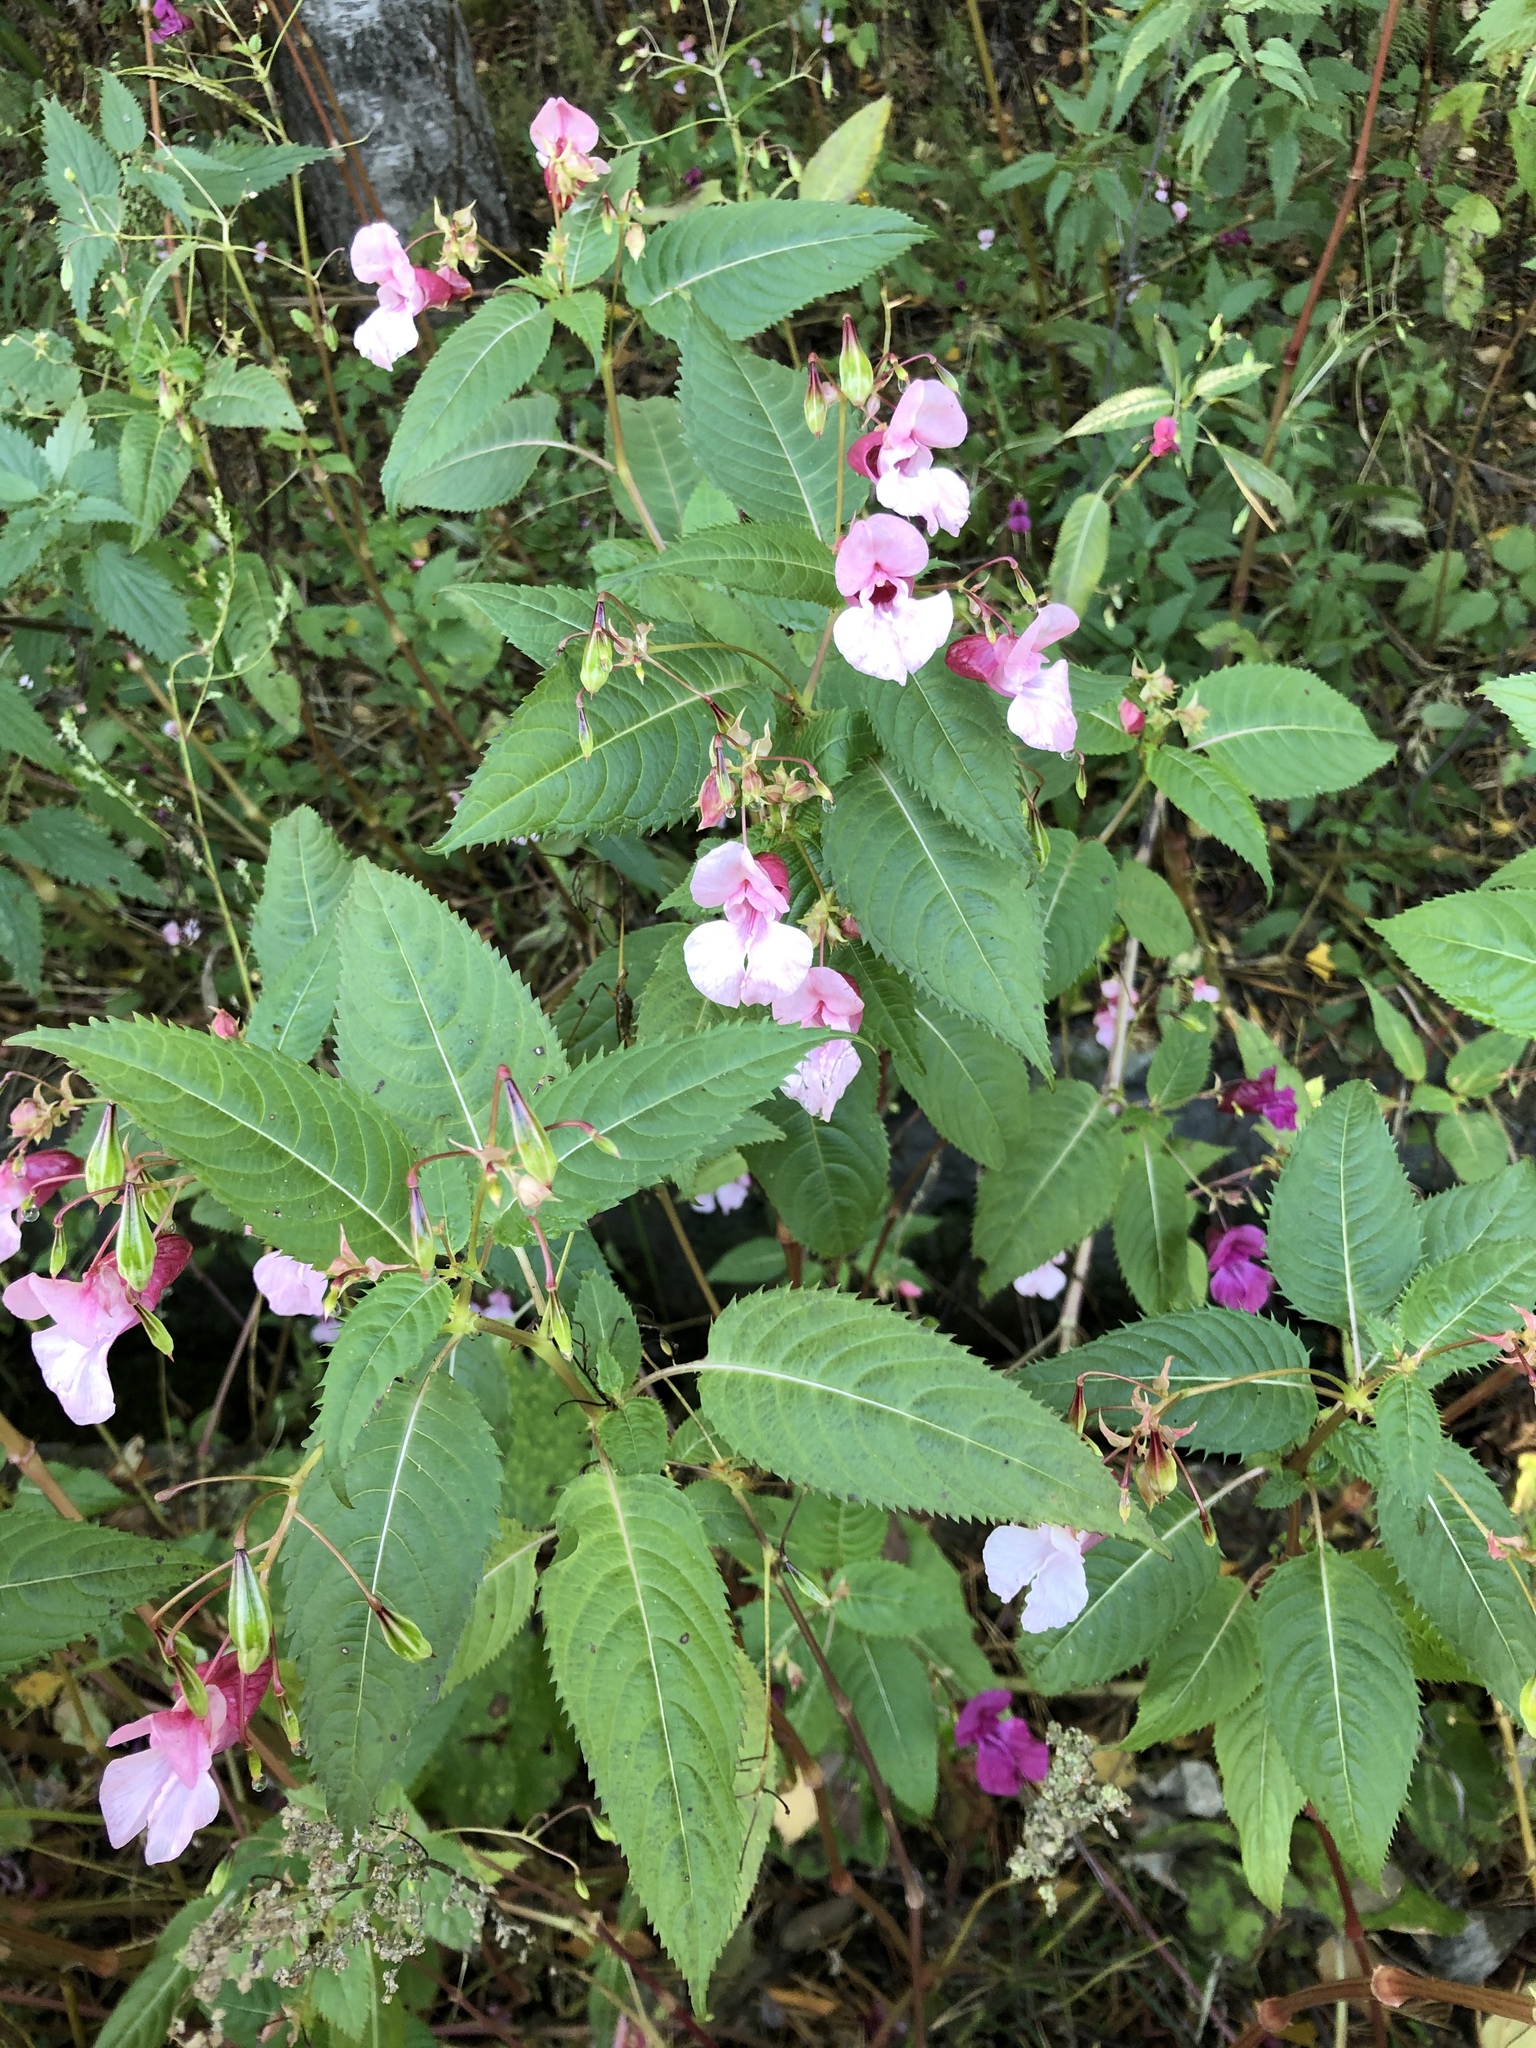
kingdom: Plantae
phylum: Tracheophyta
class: Magnoliopsida
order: Ericales
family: Balsaminaceae
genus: Impatiens
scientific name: Impatiens glandulifera
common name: Himalayan balsam
